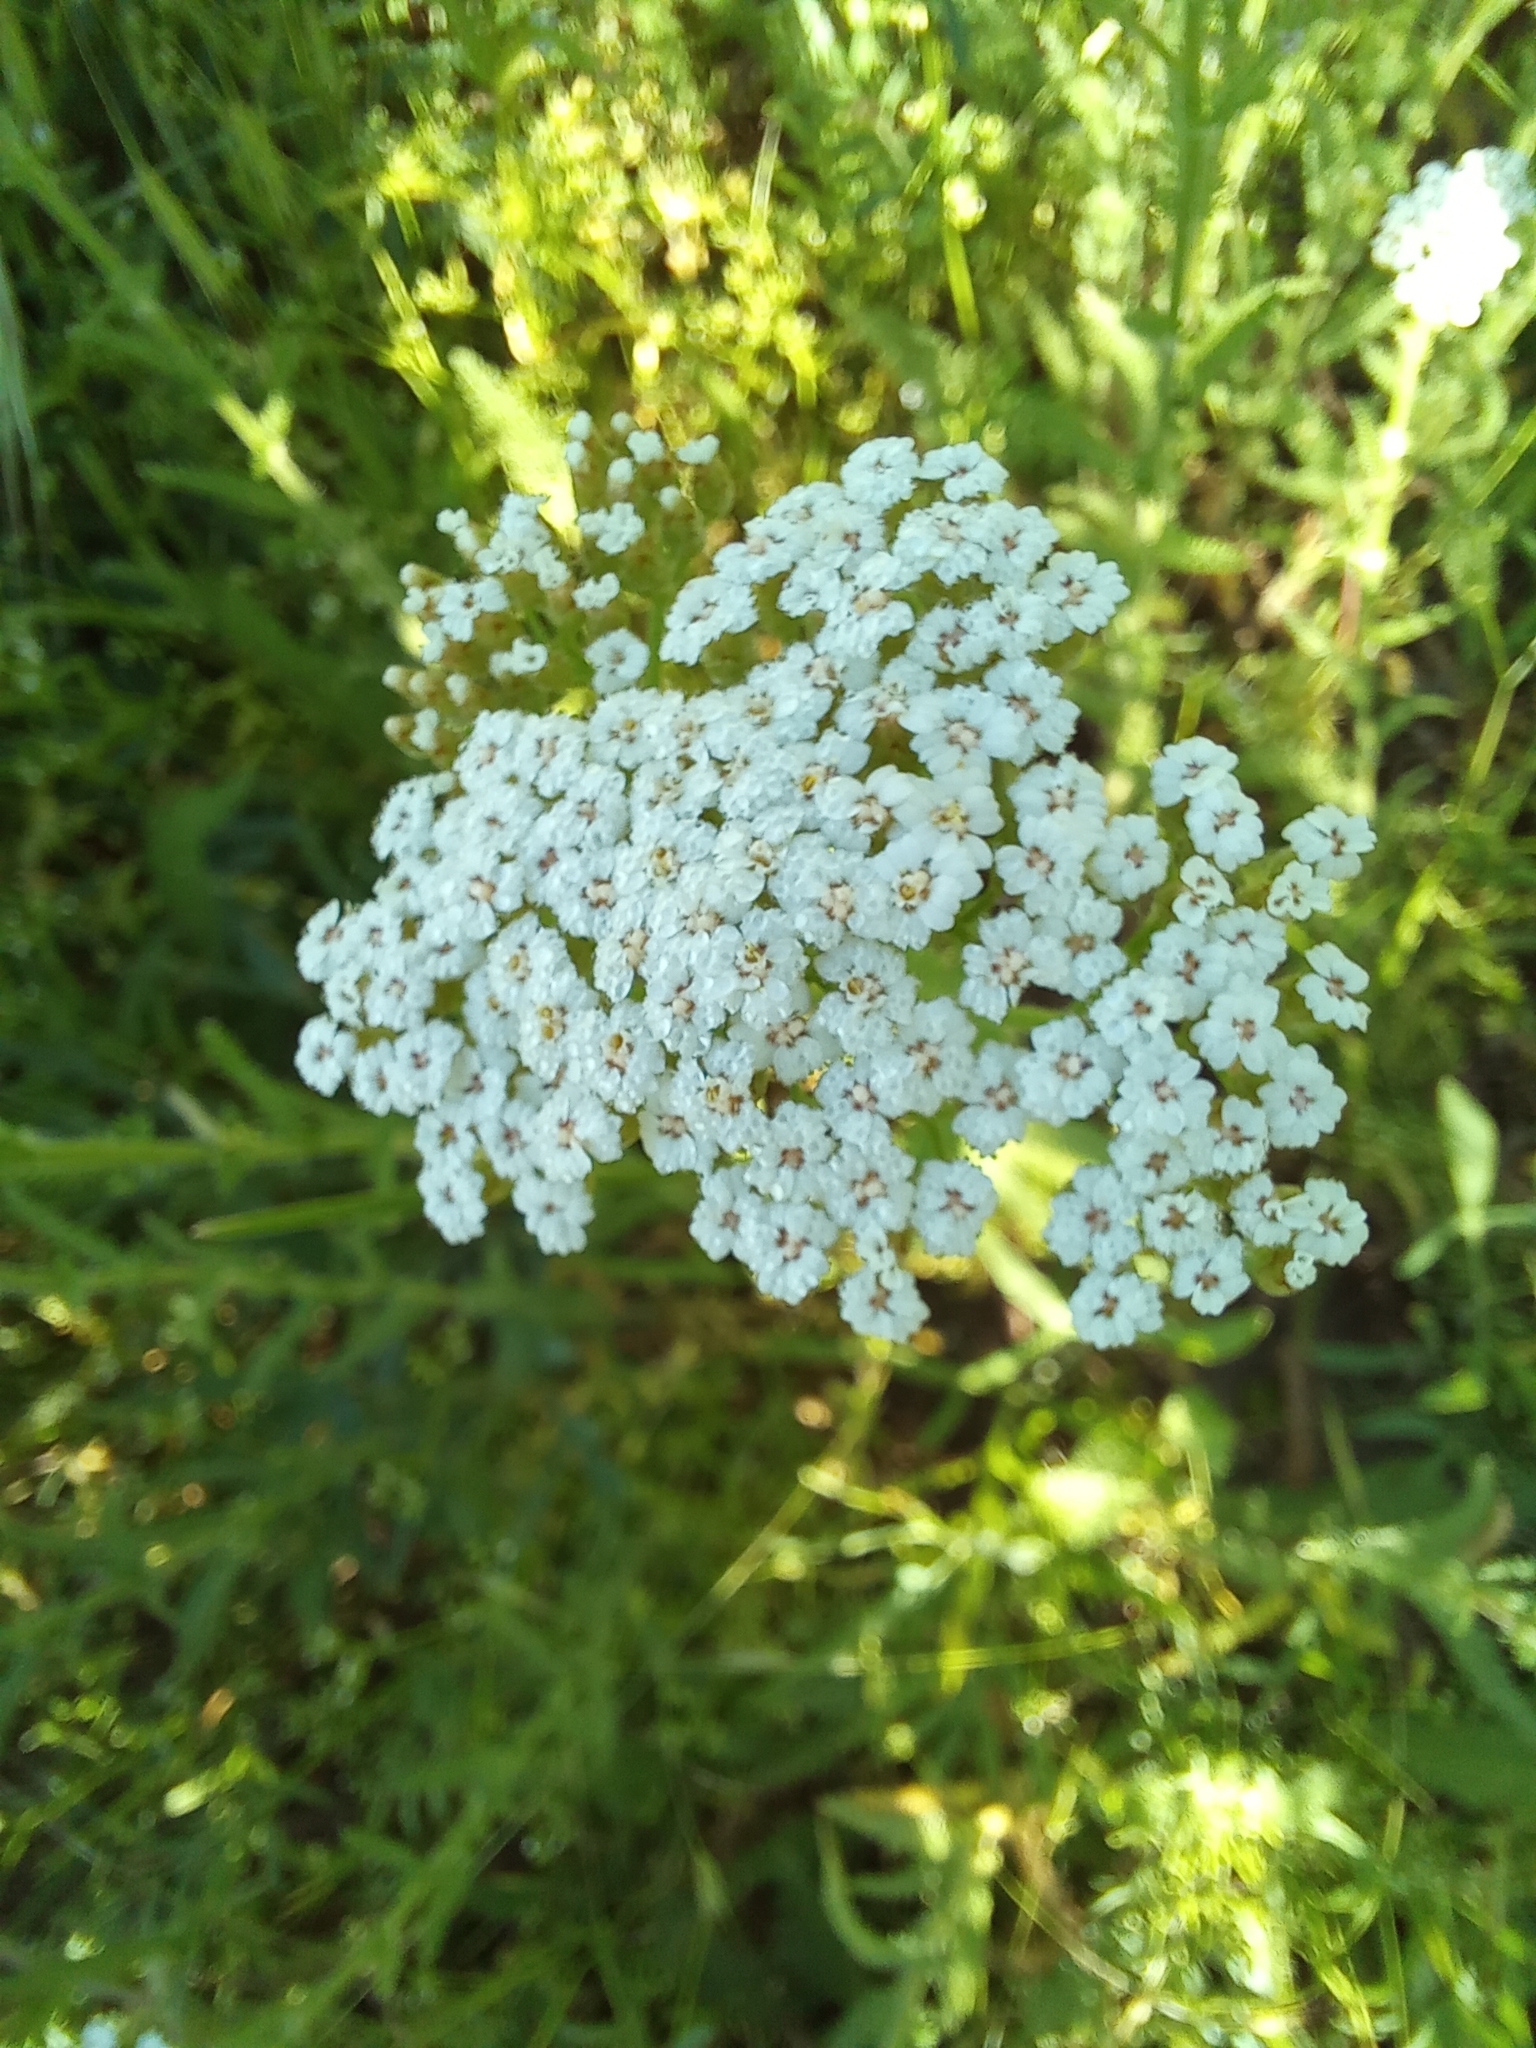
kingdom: Plantae
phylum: Tracheophyta
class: Magnoliopsida
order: Asterales
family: Asteraceae
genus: Achillea
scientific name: Achillea millefolium
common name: Yarrow
